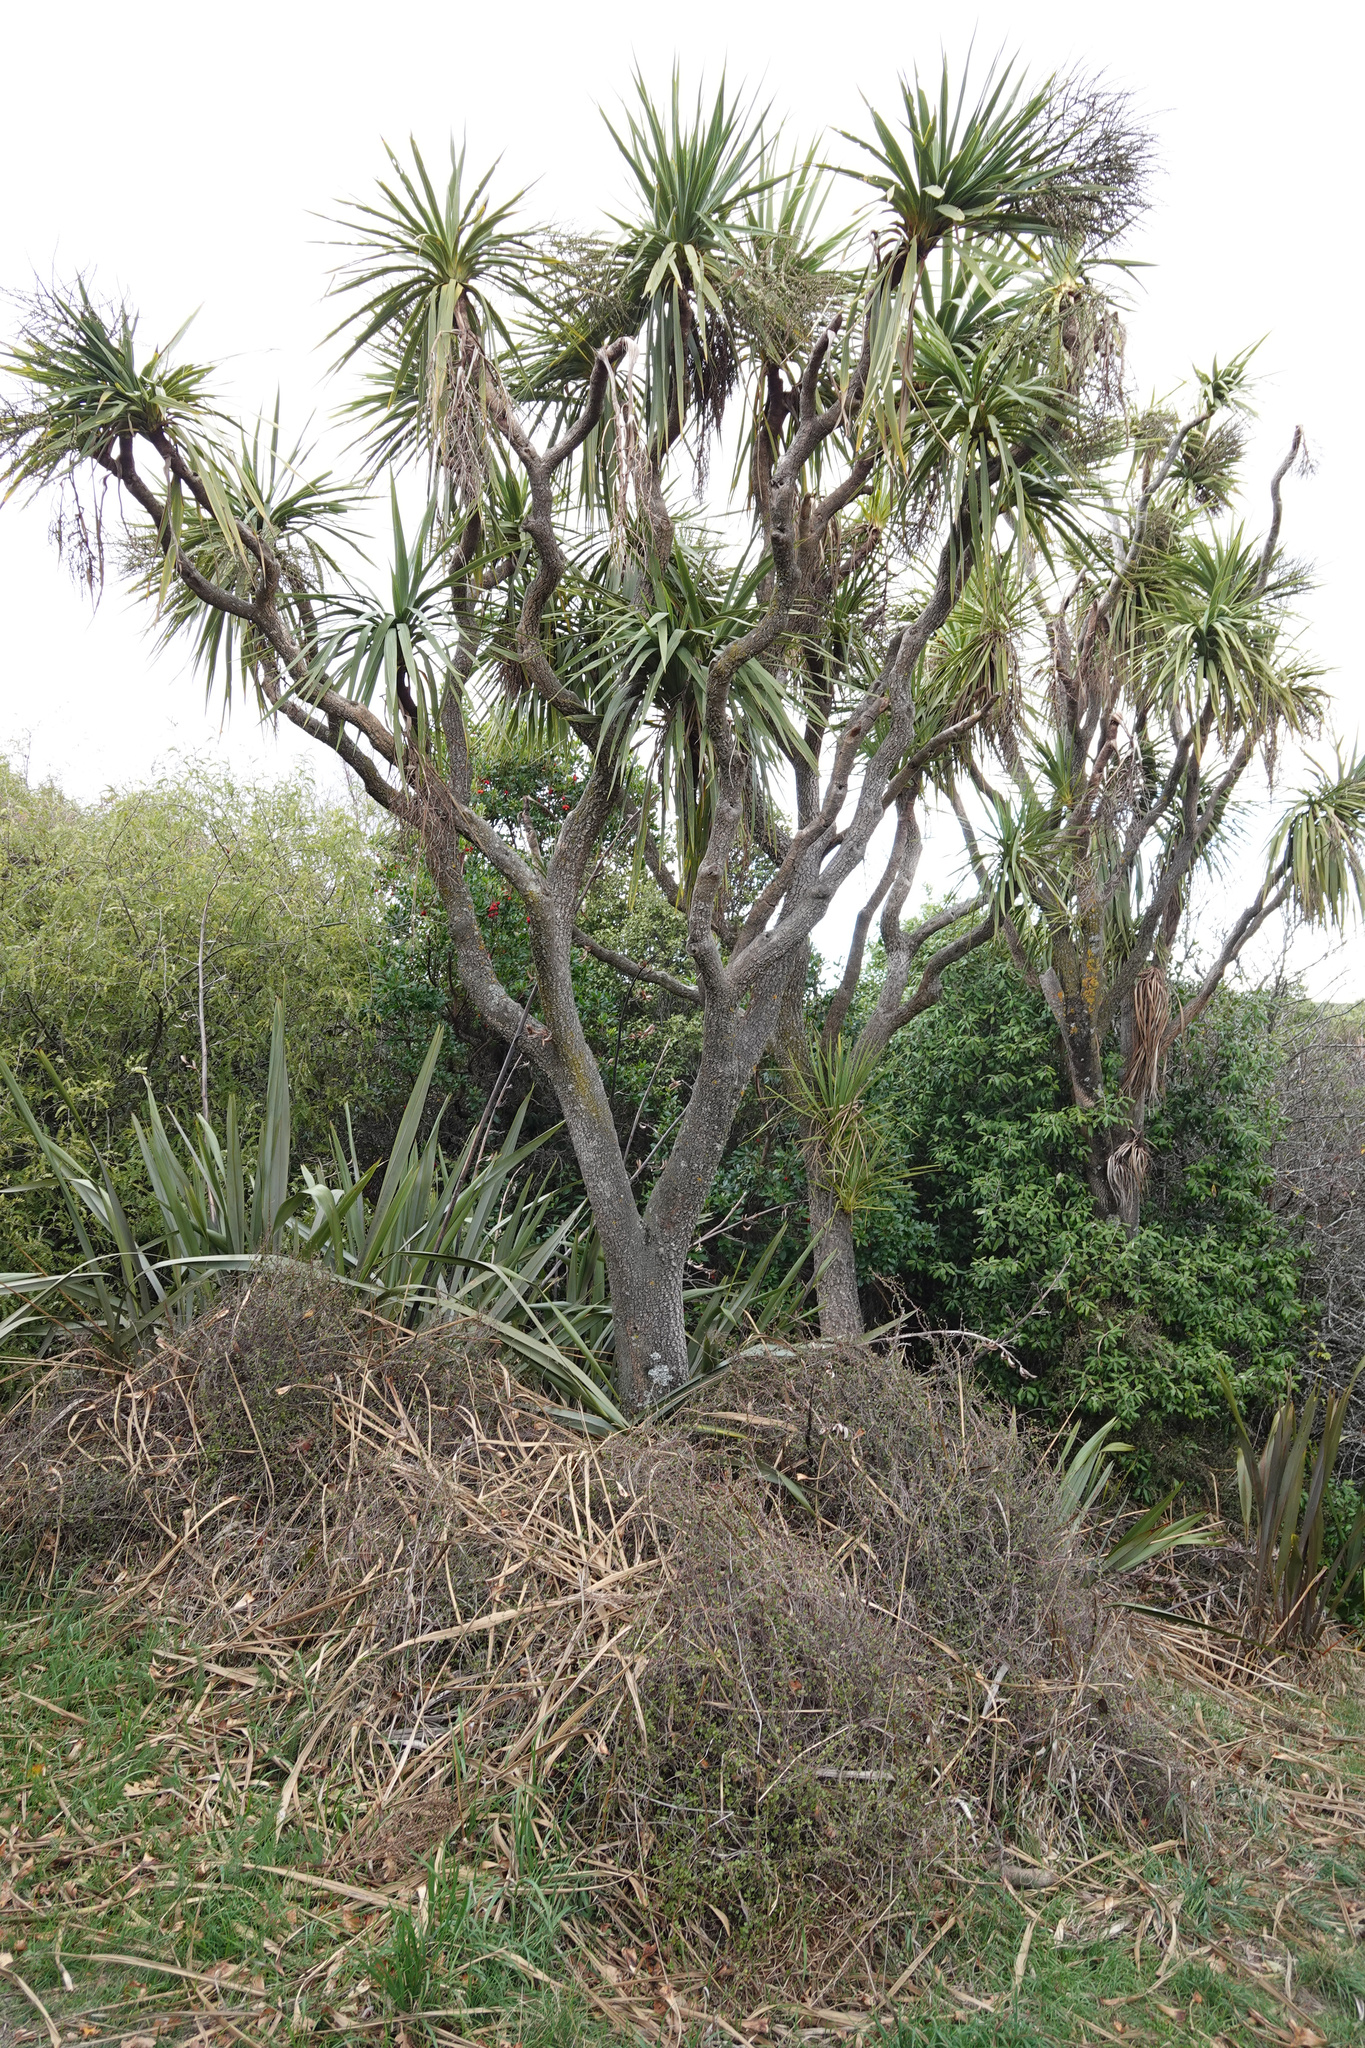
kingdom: Plantae
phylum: Tracheophyta
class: Liliopsida
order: Asparagales
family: Asparagaceae
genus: Cordyline
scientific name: Cordyline australis
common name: Cabbage-palm
